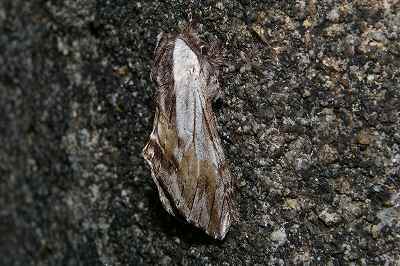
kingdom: Animalia
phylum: Arthropoda
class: Insecta
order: Lepidoptera
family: Notodontidae
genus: Harpyia
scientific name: Harpyia umbrosa
